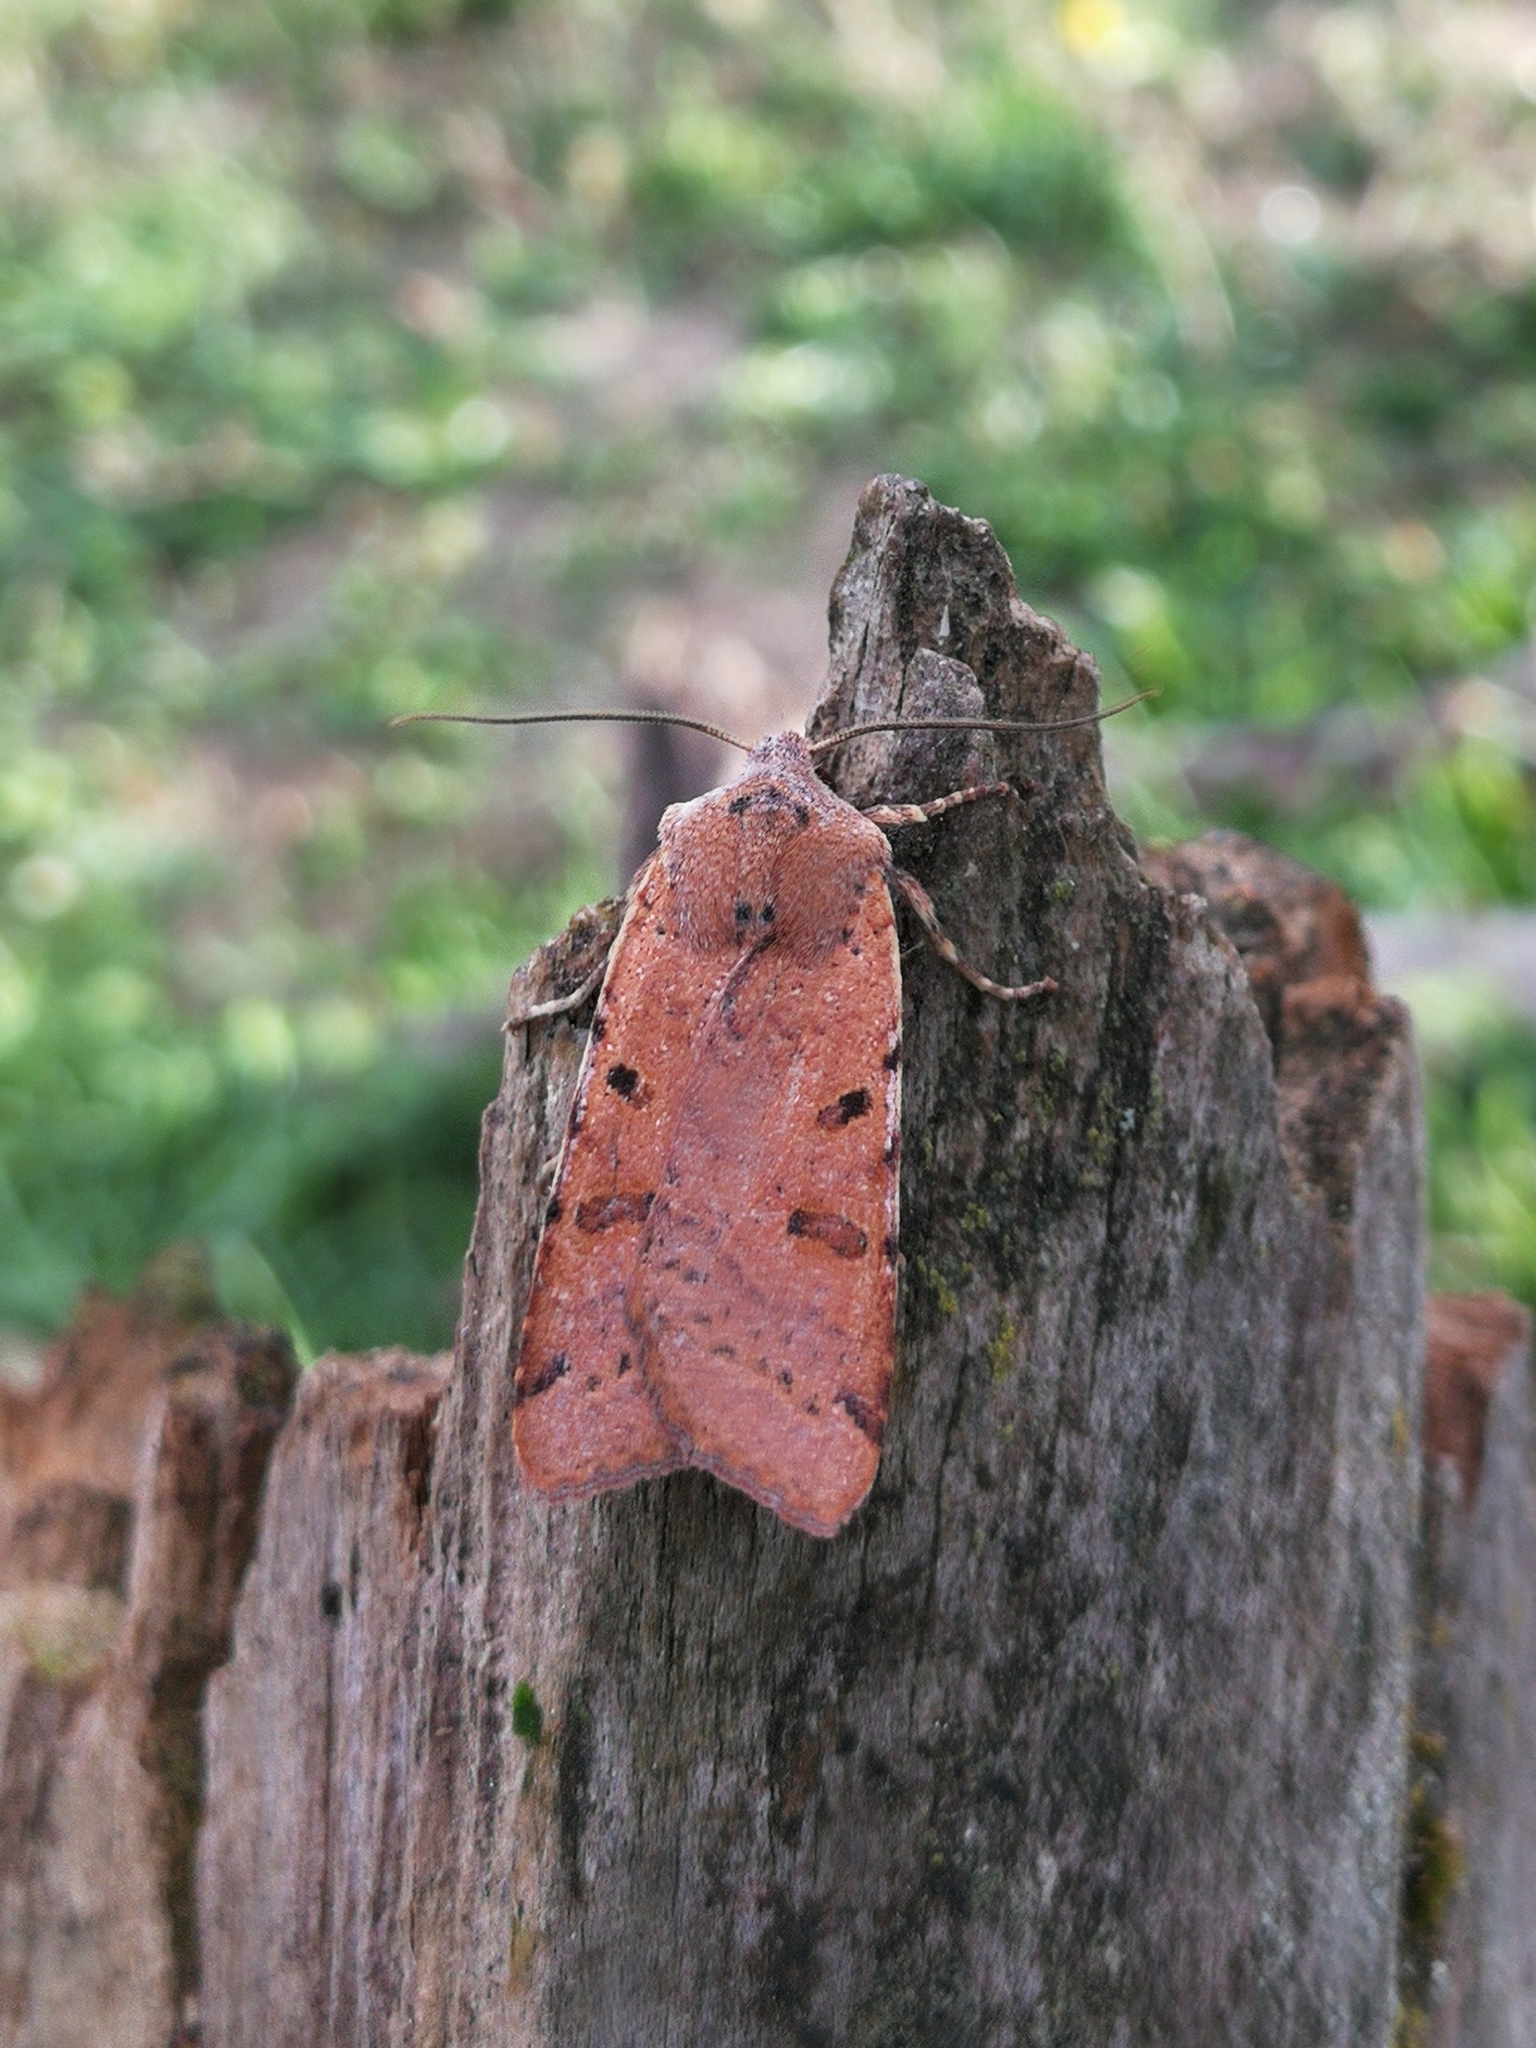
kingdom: Animalia
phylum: Arthropoda
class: Insecta
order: Lepidoptera
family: Noctuidae
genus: Agrochola
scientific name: Agrochola lychnidis
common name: Beaded chestnut
